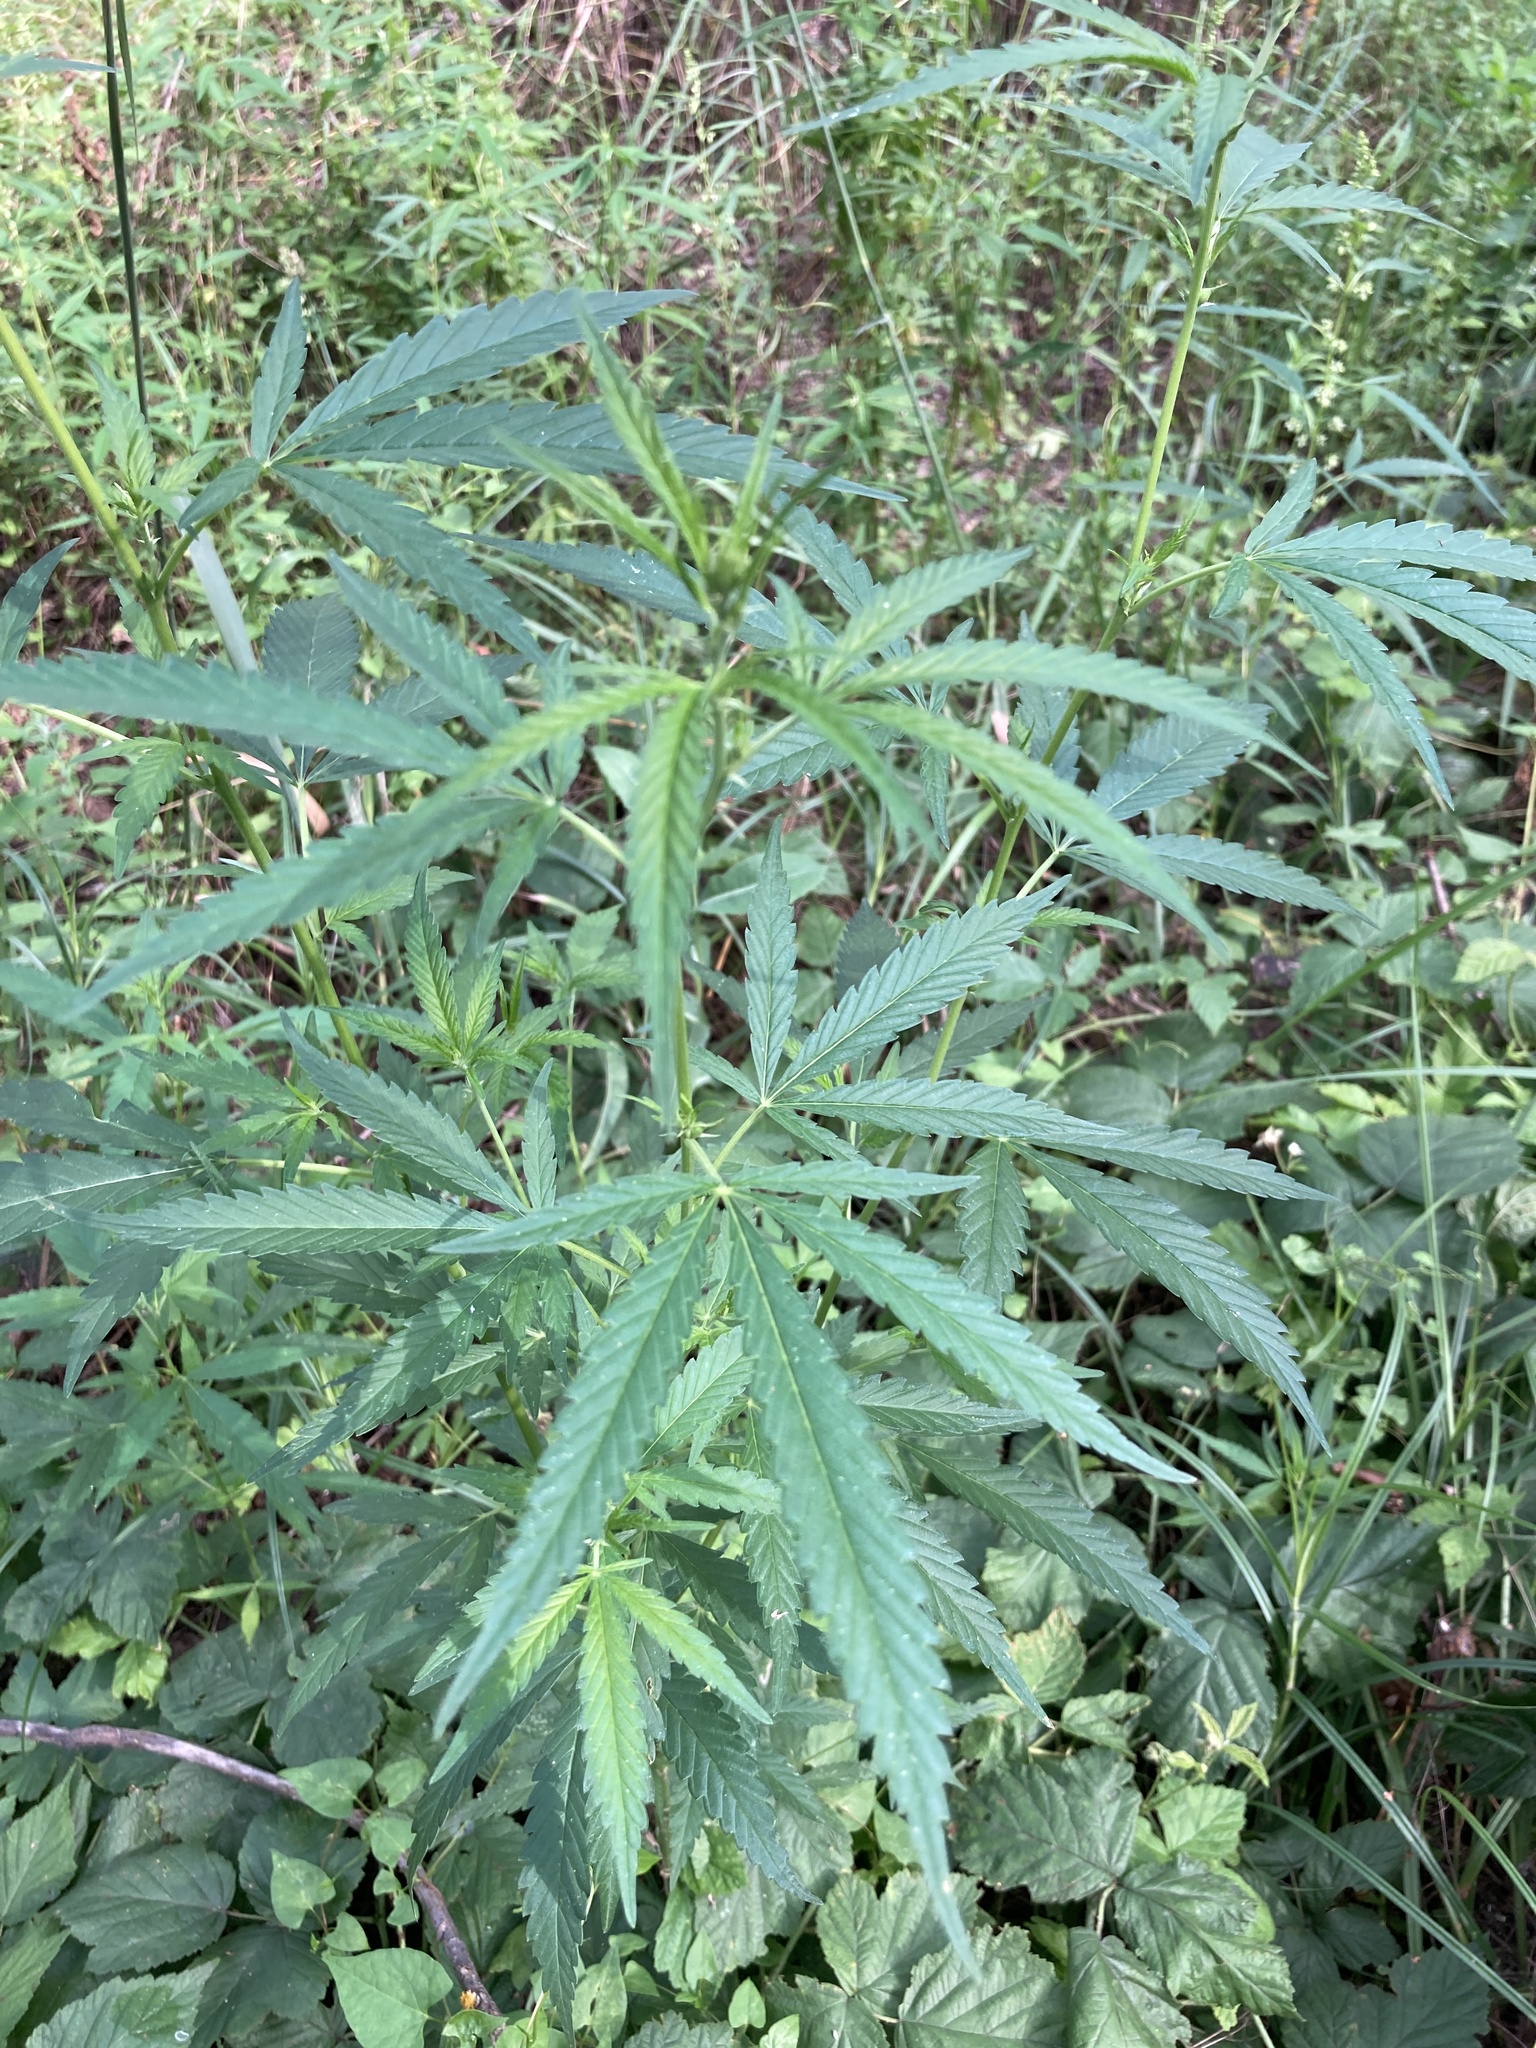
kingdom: Plantae
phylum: Tracheophyta
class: Magnoliopsida
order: Rosales
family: Cannabaceae
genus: Cannabis
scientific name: Cannabis sativa
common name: Hemp
